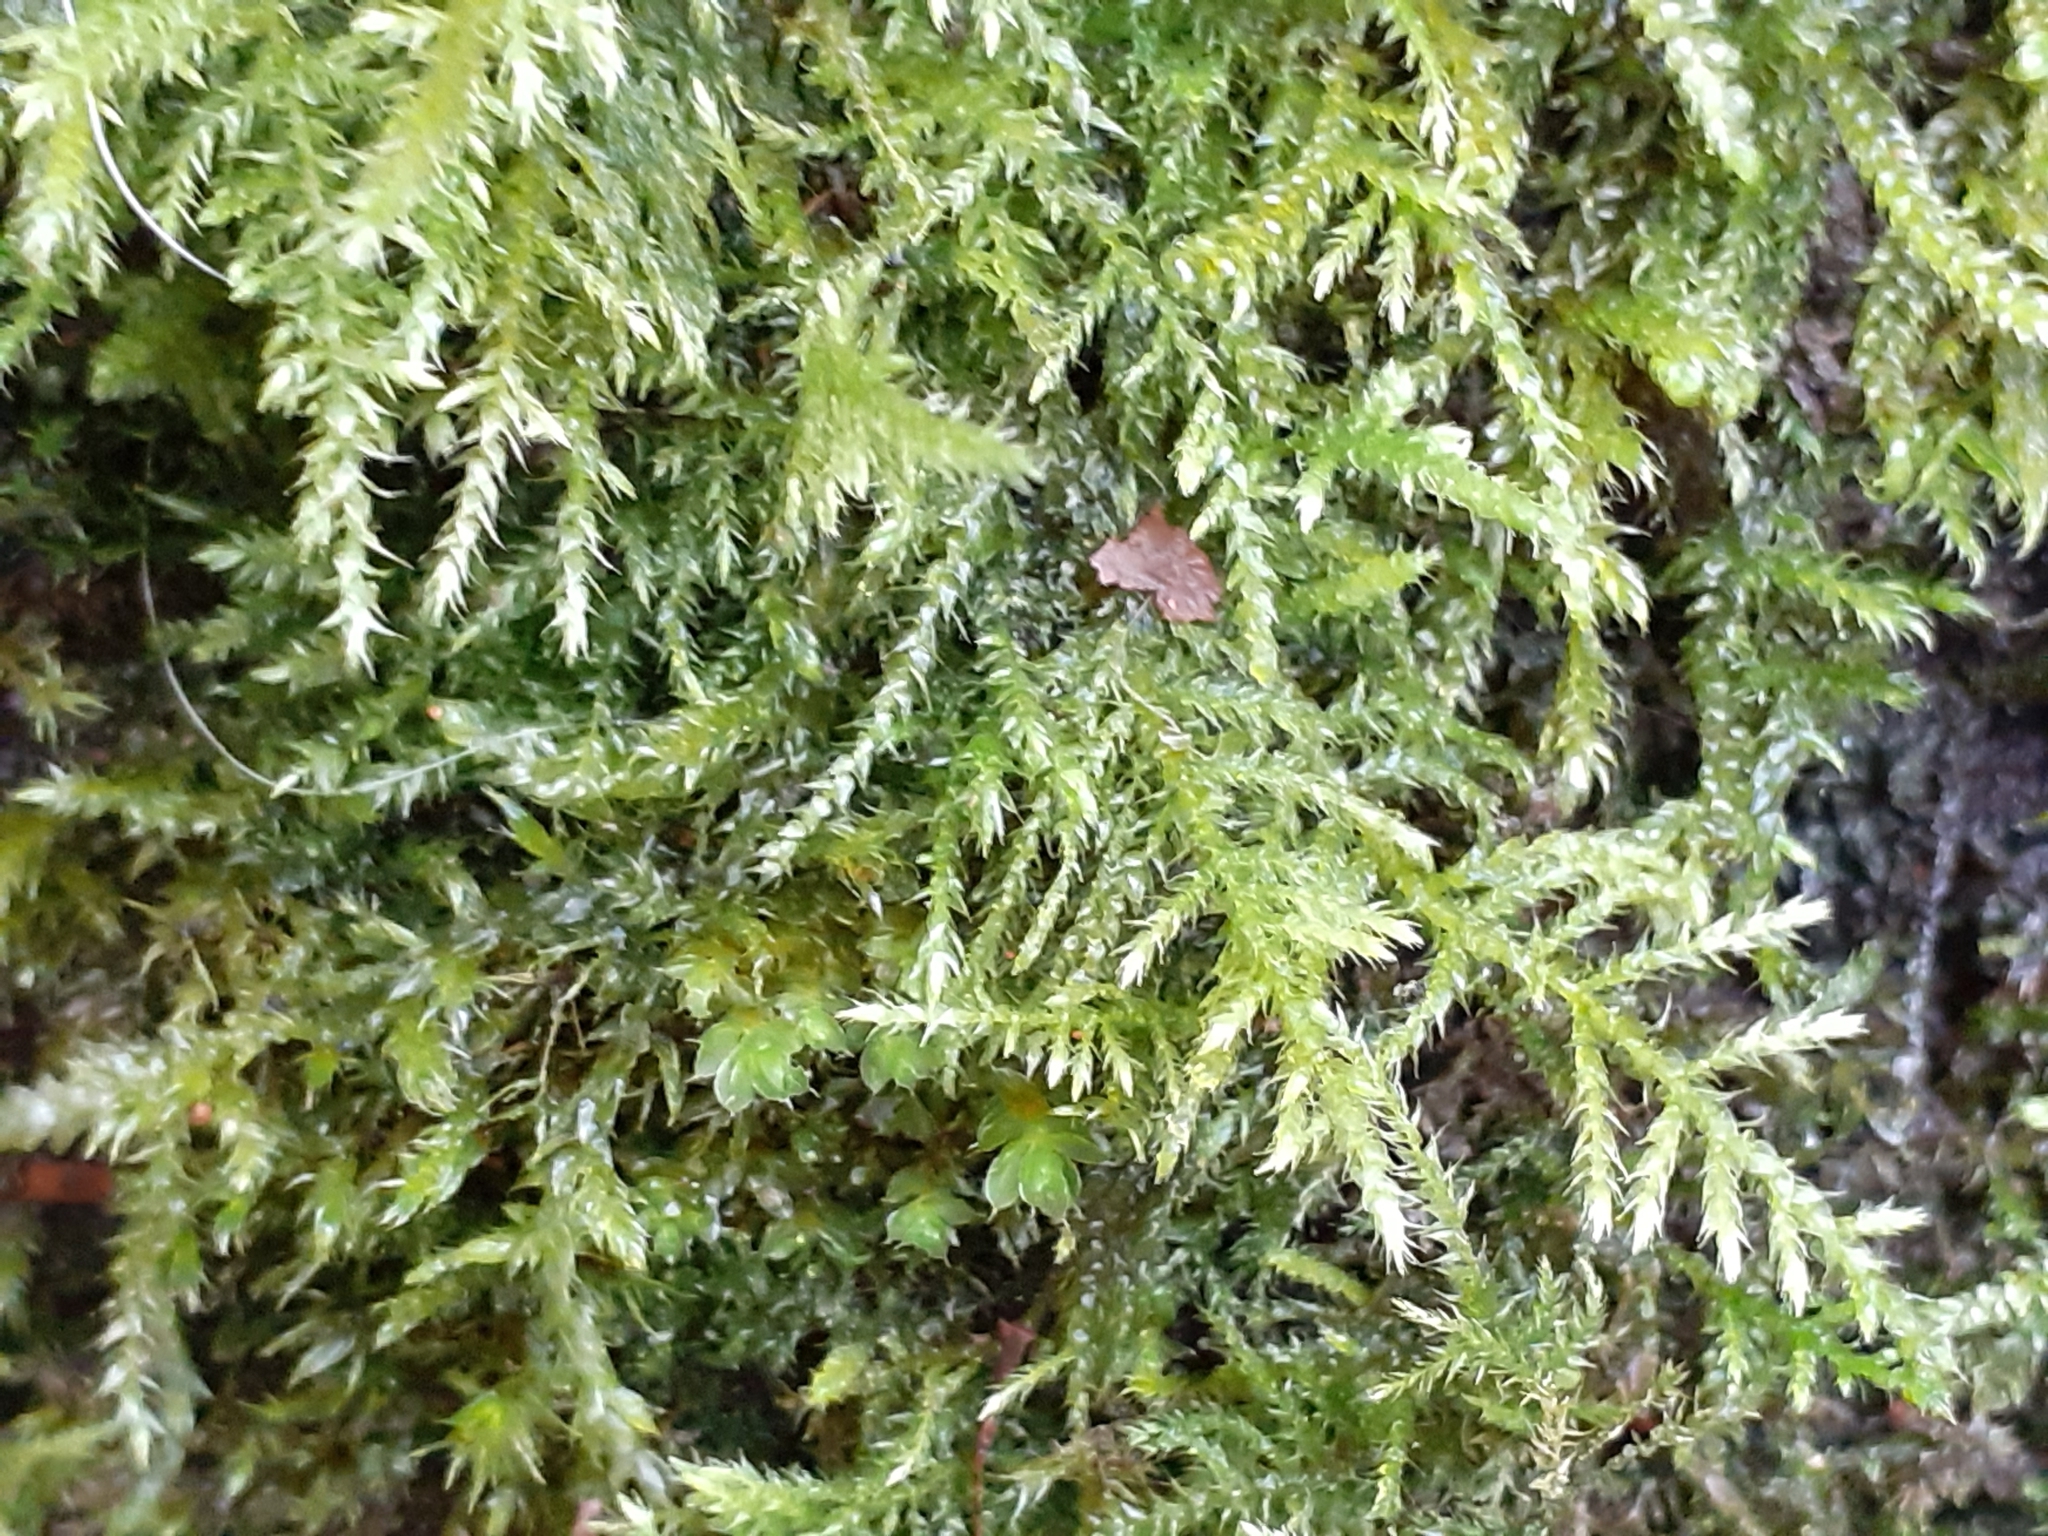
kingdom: Plantae
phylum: Bryophyta
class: Bryopsida
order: Hypnales
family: Brachytheciaceae
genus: Kindbergia
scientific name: Kindbergia praelonga
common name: Slender beaked moss
